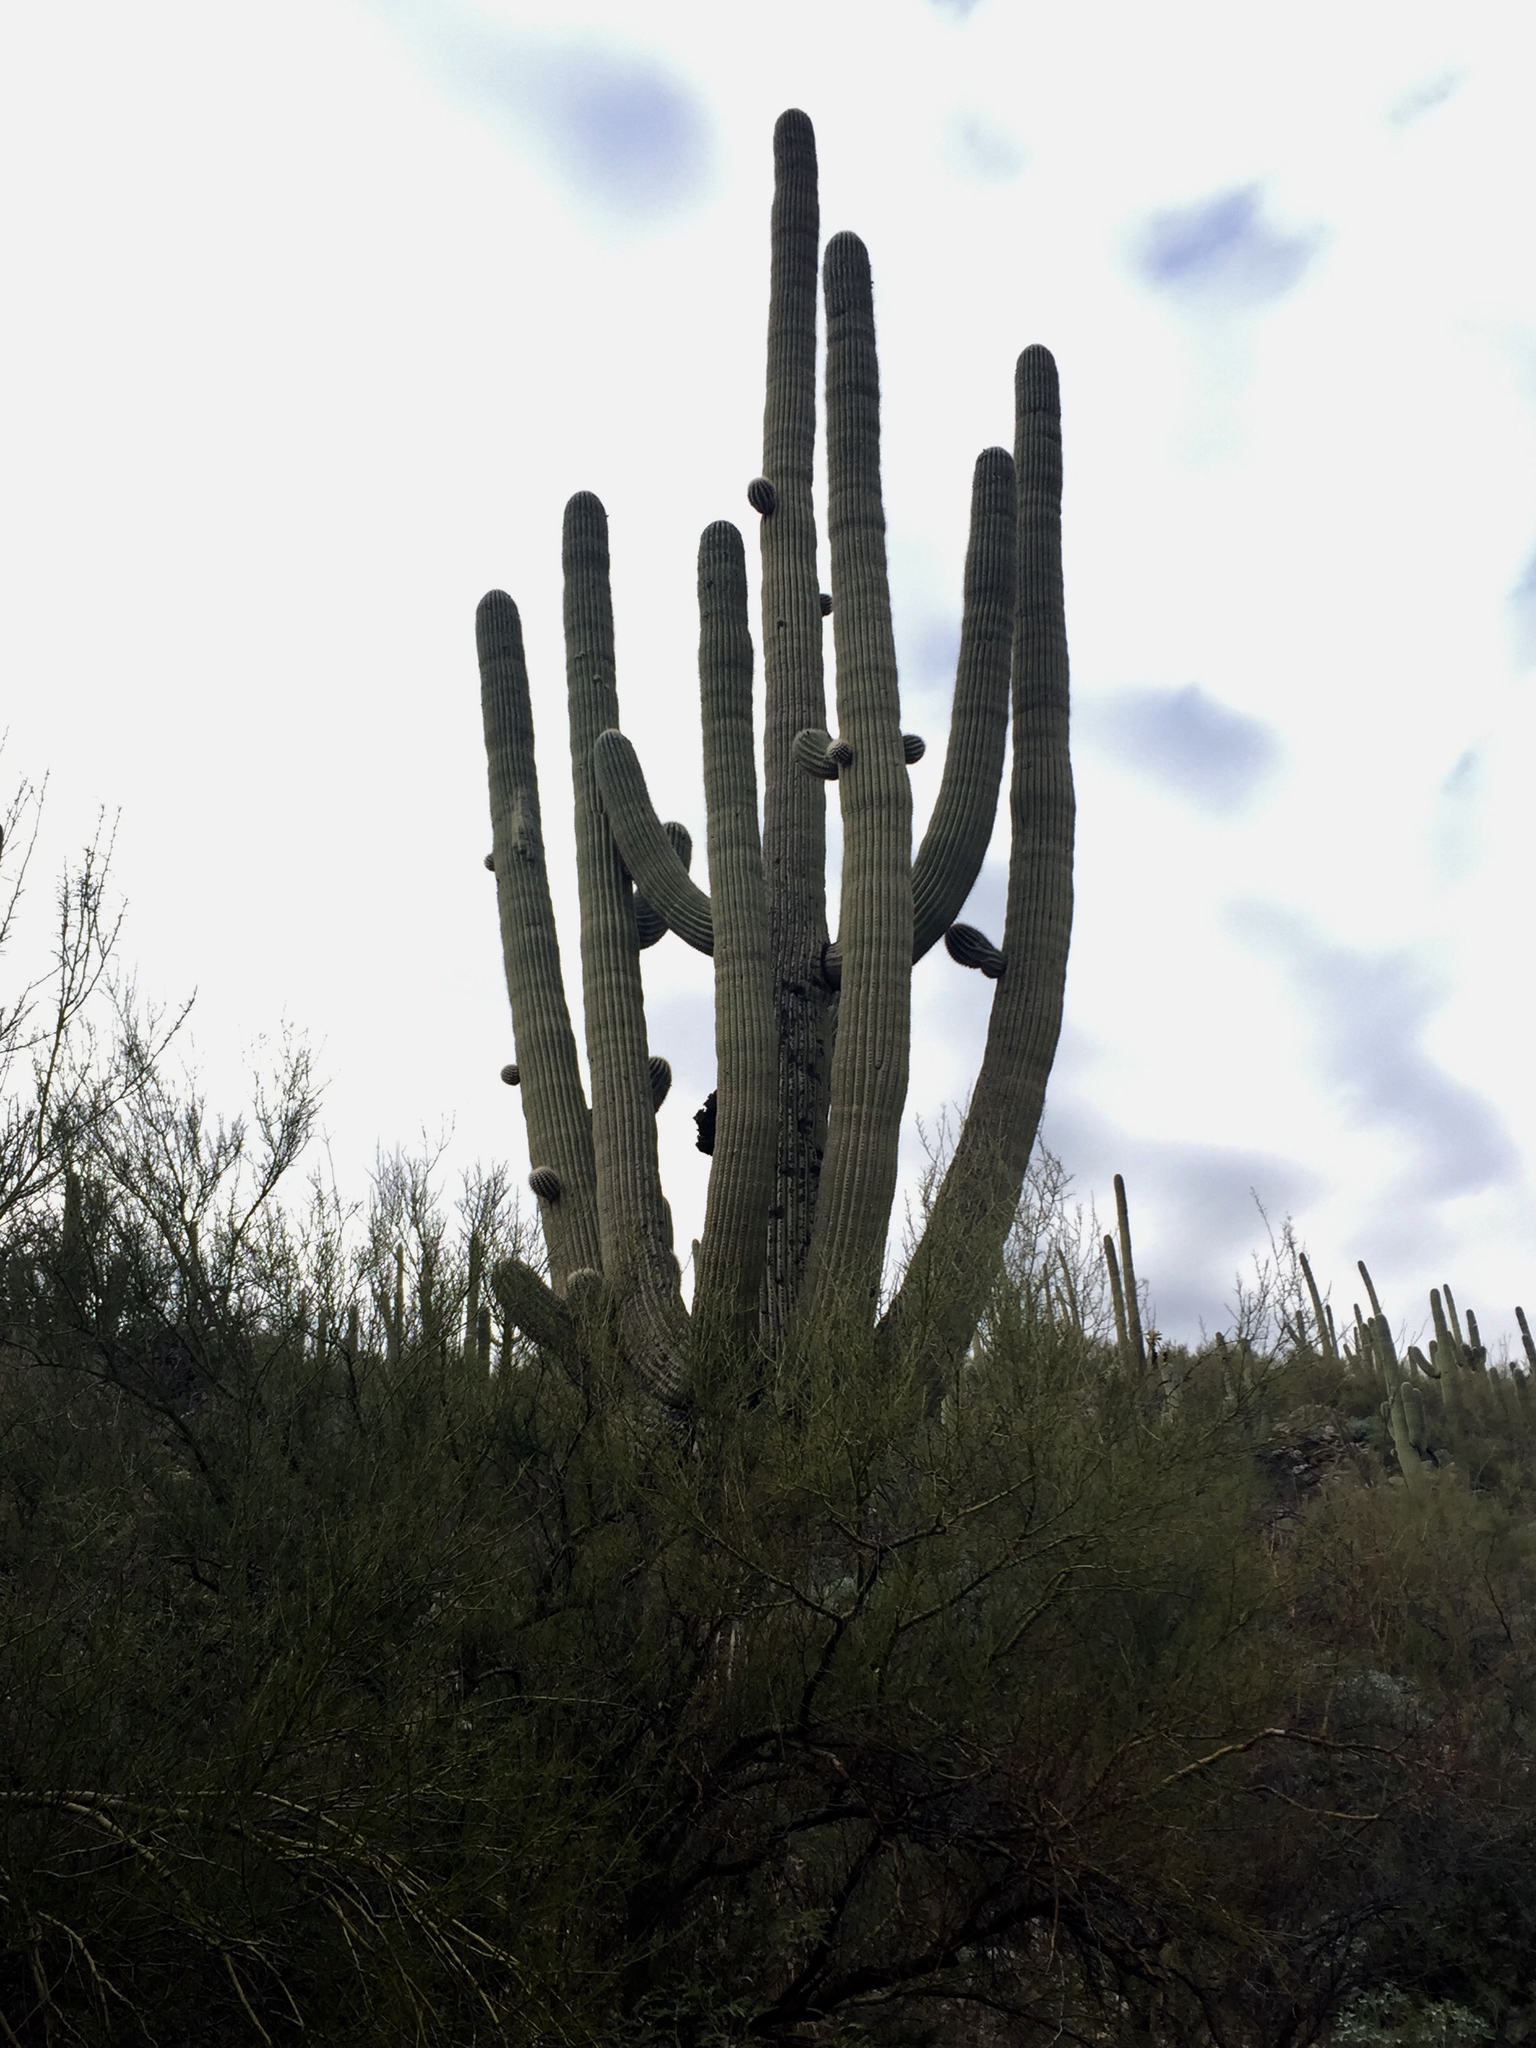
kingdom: Plantae
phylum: Tracheophyta
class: Magnoliopsida
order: Caryophyllales
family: Cactaceae
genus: Carnegiea
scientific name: Carnegiea gigantea
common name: Saguaro
